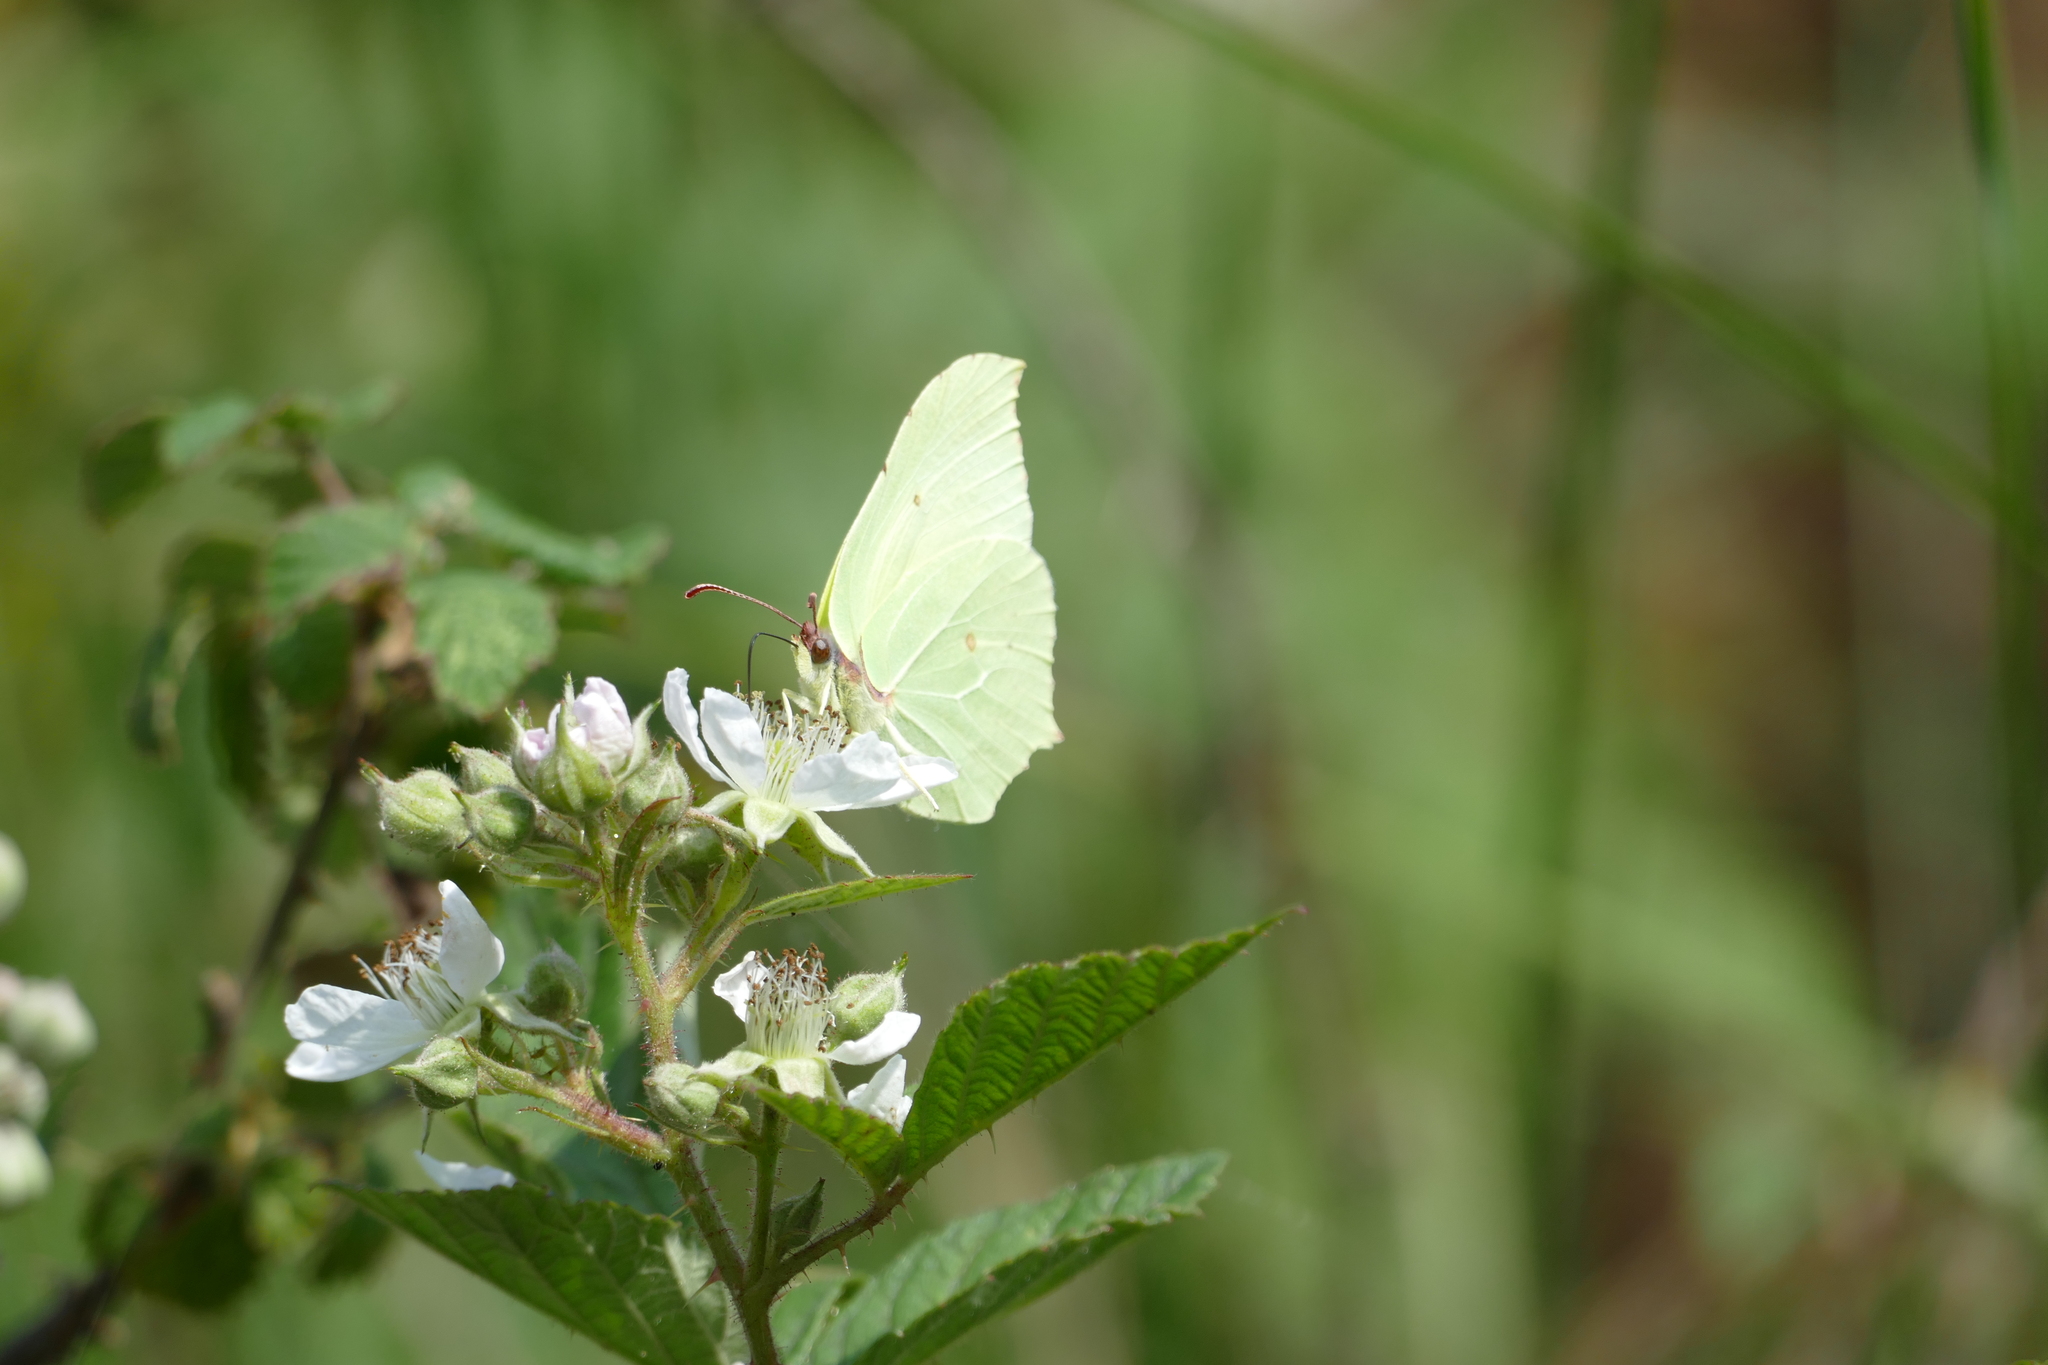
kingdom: Animalia
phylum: Arthropoda
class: Insecta
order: Lepidoptera
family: Pieridae
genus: Gonepteryx
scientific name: Gonepteryx rhamni
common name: Brimstone
